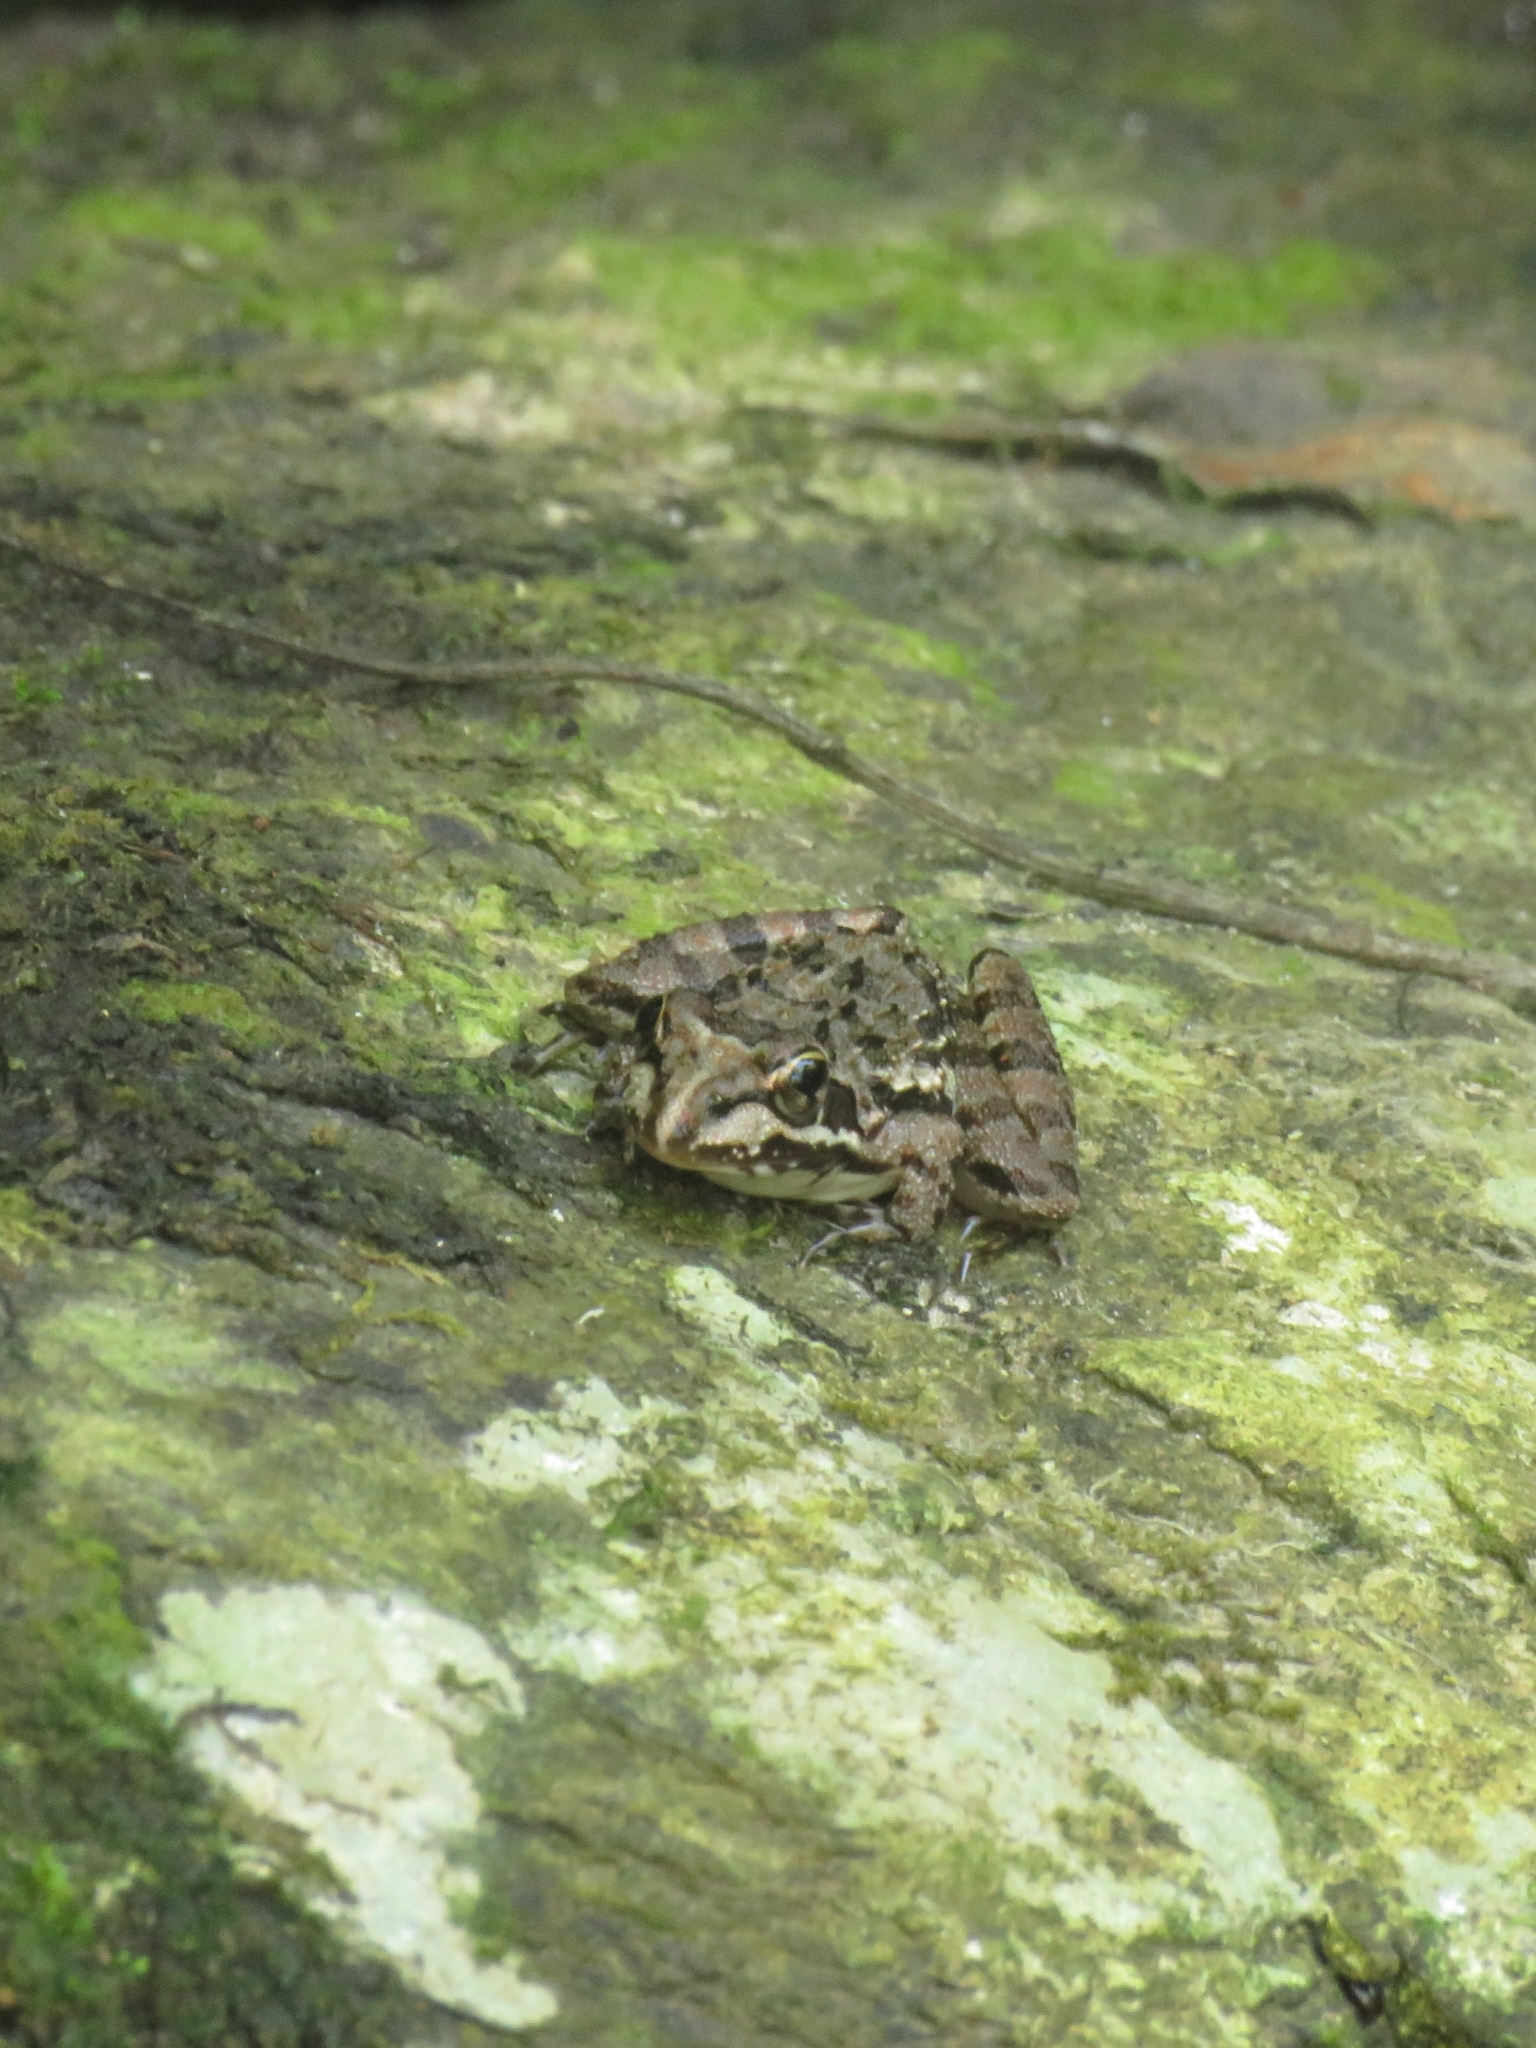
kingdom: Animalia
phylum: Chordata
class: Amphibia
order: Anura
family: Pyxicephalidae
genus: Amietia
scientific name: Amietia fuscigula
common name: Cape rana
